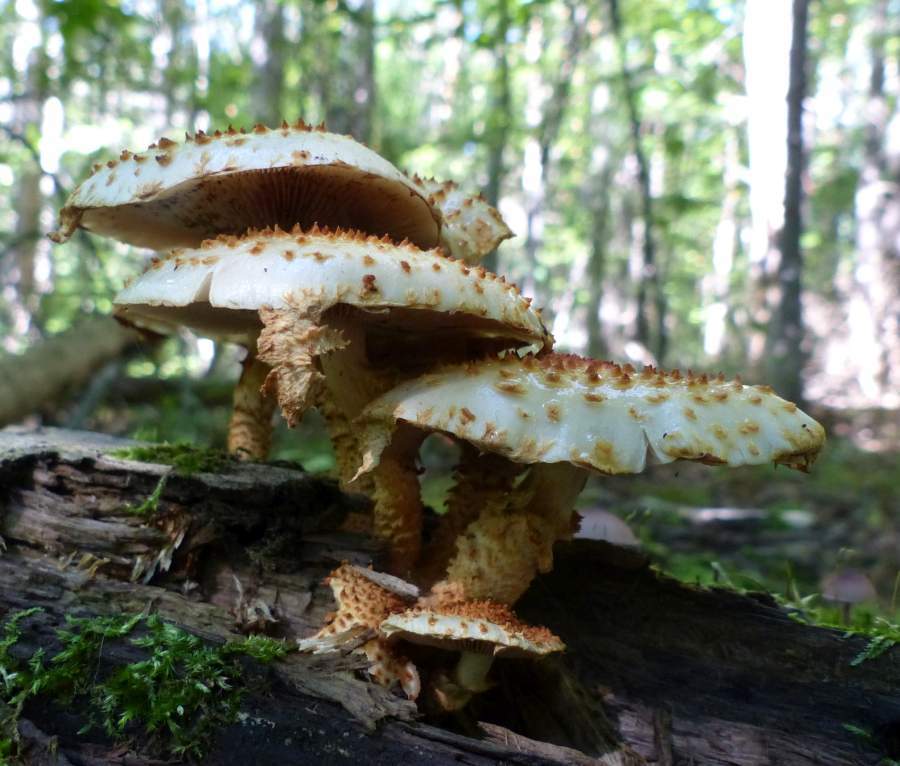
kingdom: Fungi
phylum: Basidiomycota
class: Agaricomycetes
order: Agaricales
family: Strophariaceae
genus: Pholiota
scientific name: Pholiota squarrosoides
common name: Sharp-scaly pholiota
